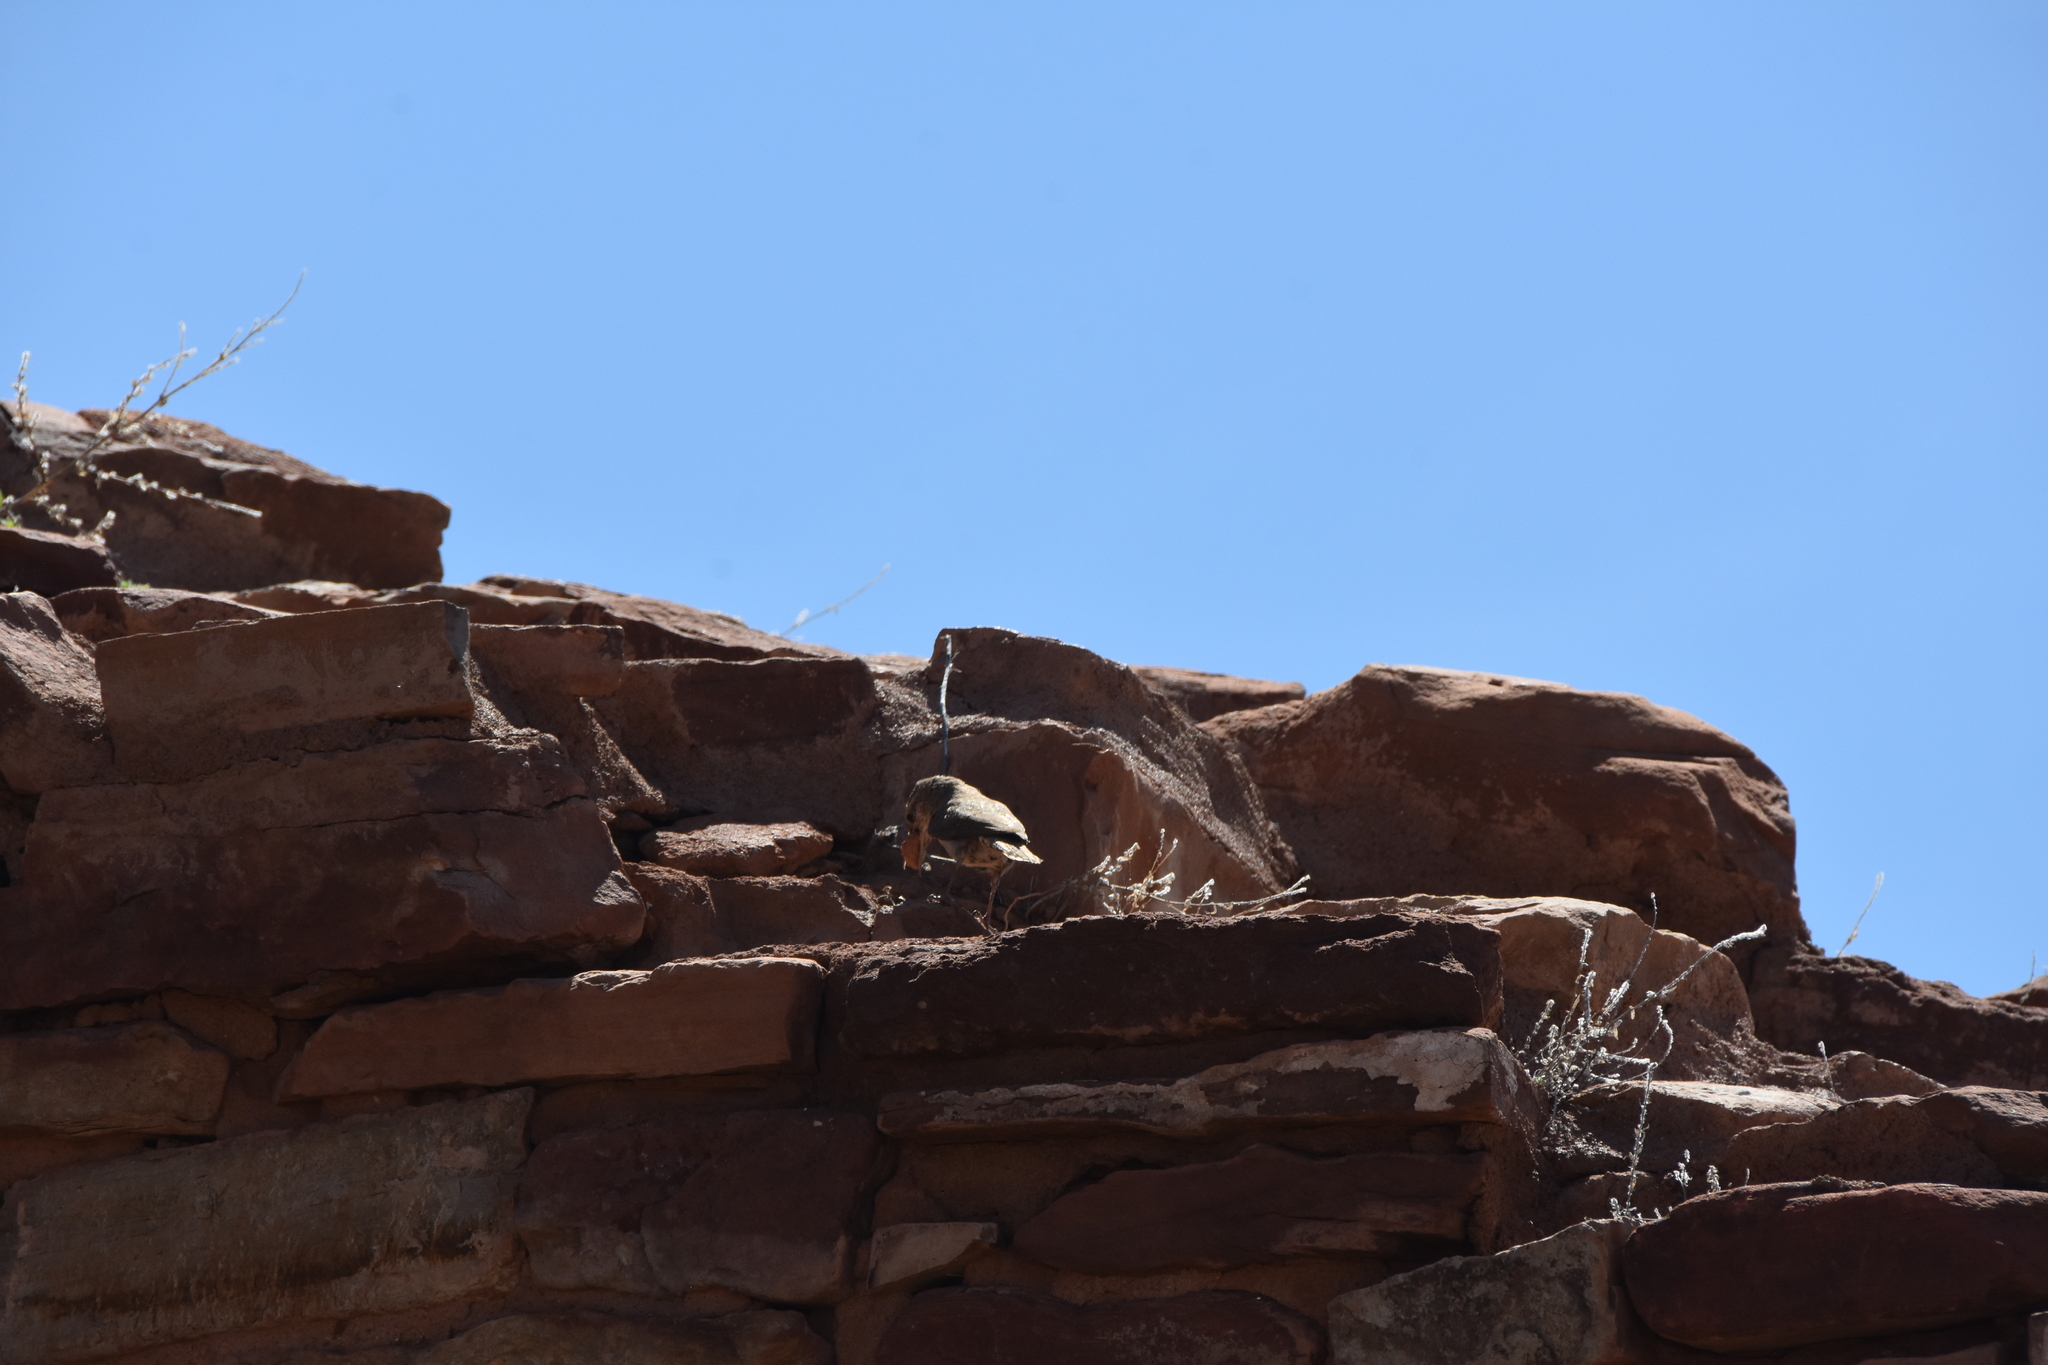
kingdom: Animalia
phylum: Chordata
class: Aves
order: Passeriformes
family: Troglodytidae
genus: Salpinctes
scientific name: Salpinctes obsoletus
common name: Rock wren
